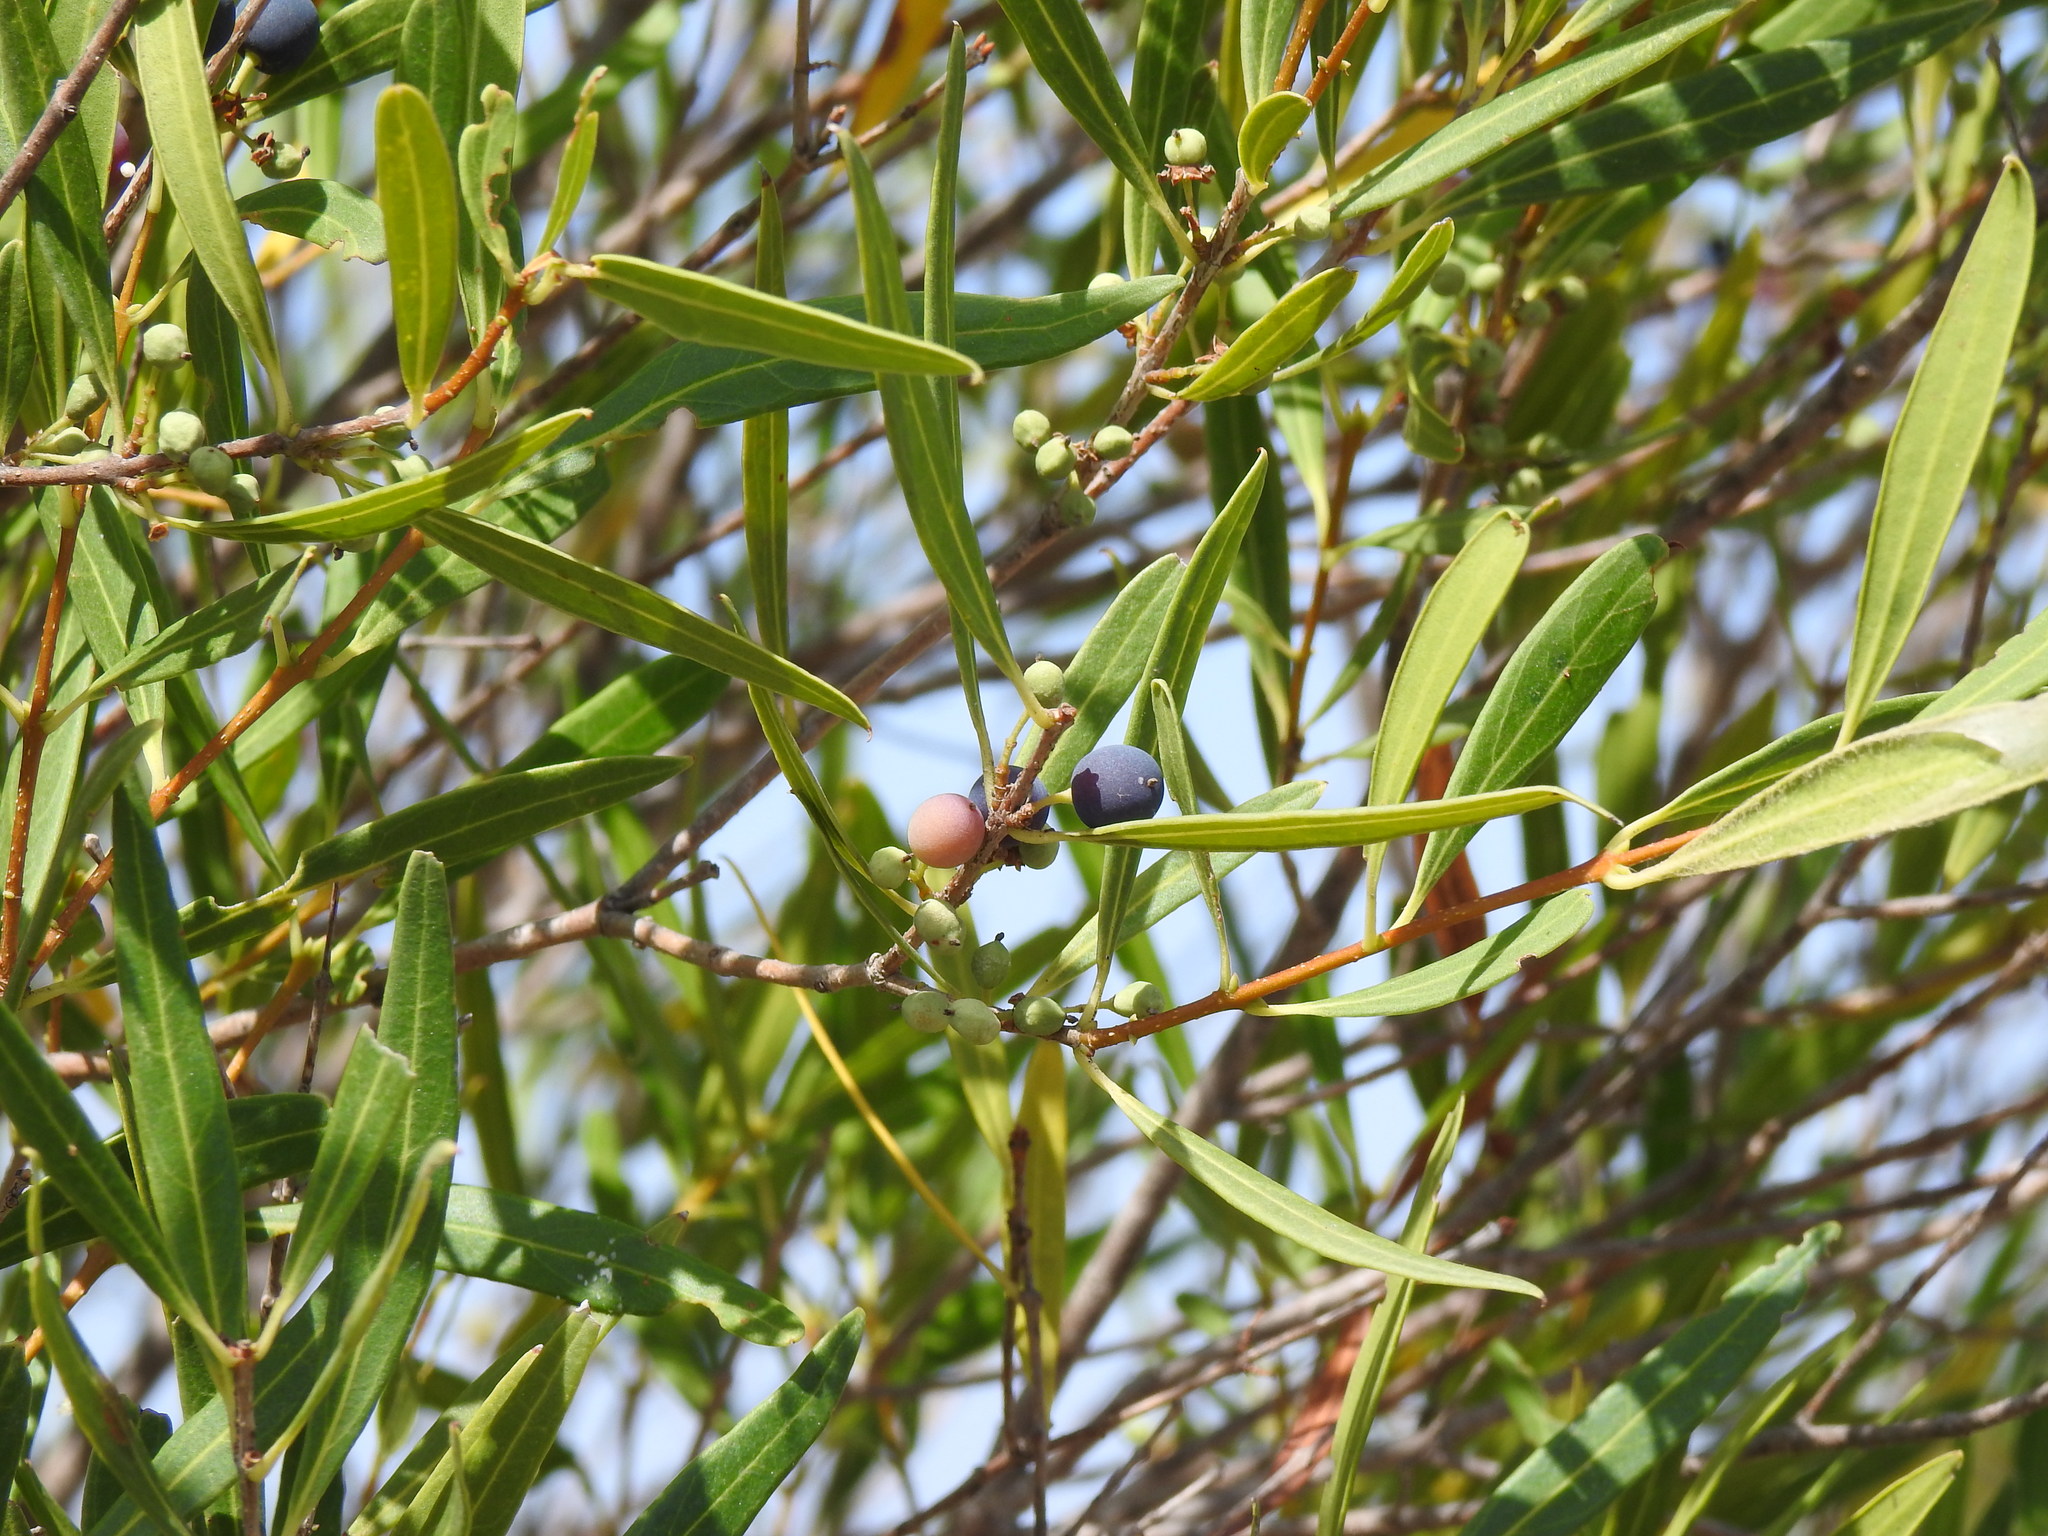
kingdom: Plantae
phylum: Tracheophyta
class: Magnoliopsida
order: Lamiales
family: Oleaceae
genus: Phillyrea
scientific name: Phillyrea angustifolia
